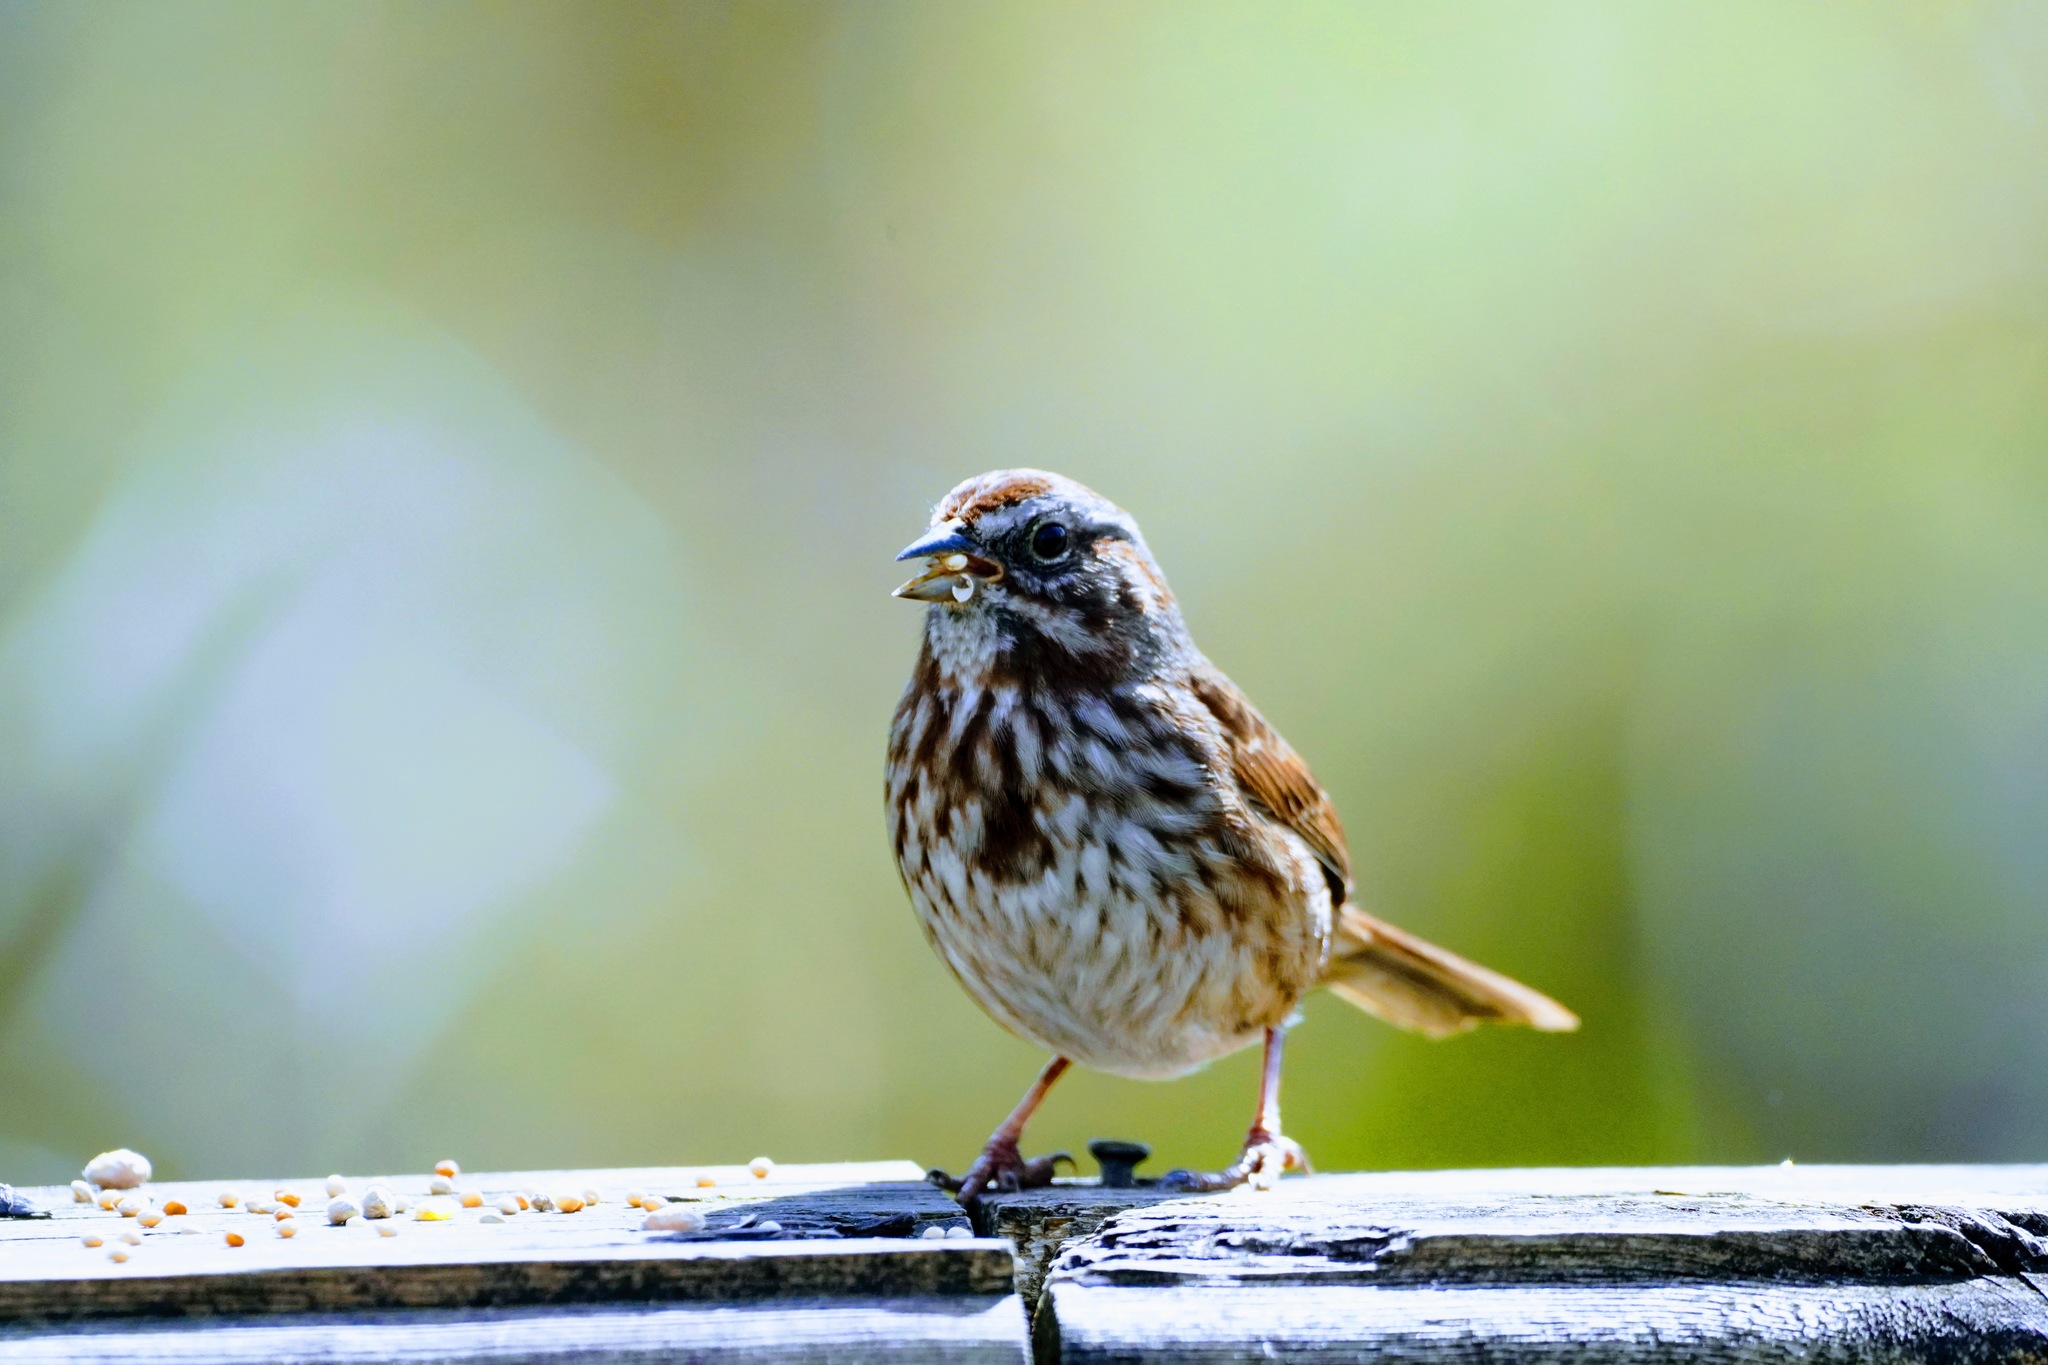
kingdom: Animalia
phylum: Chordata
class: Aves
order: Passeriformes
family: Passerellidae
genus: Melospiza
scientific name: Melospiza melodia
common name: Song sparrow
